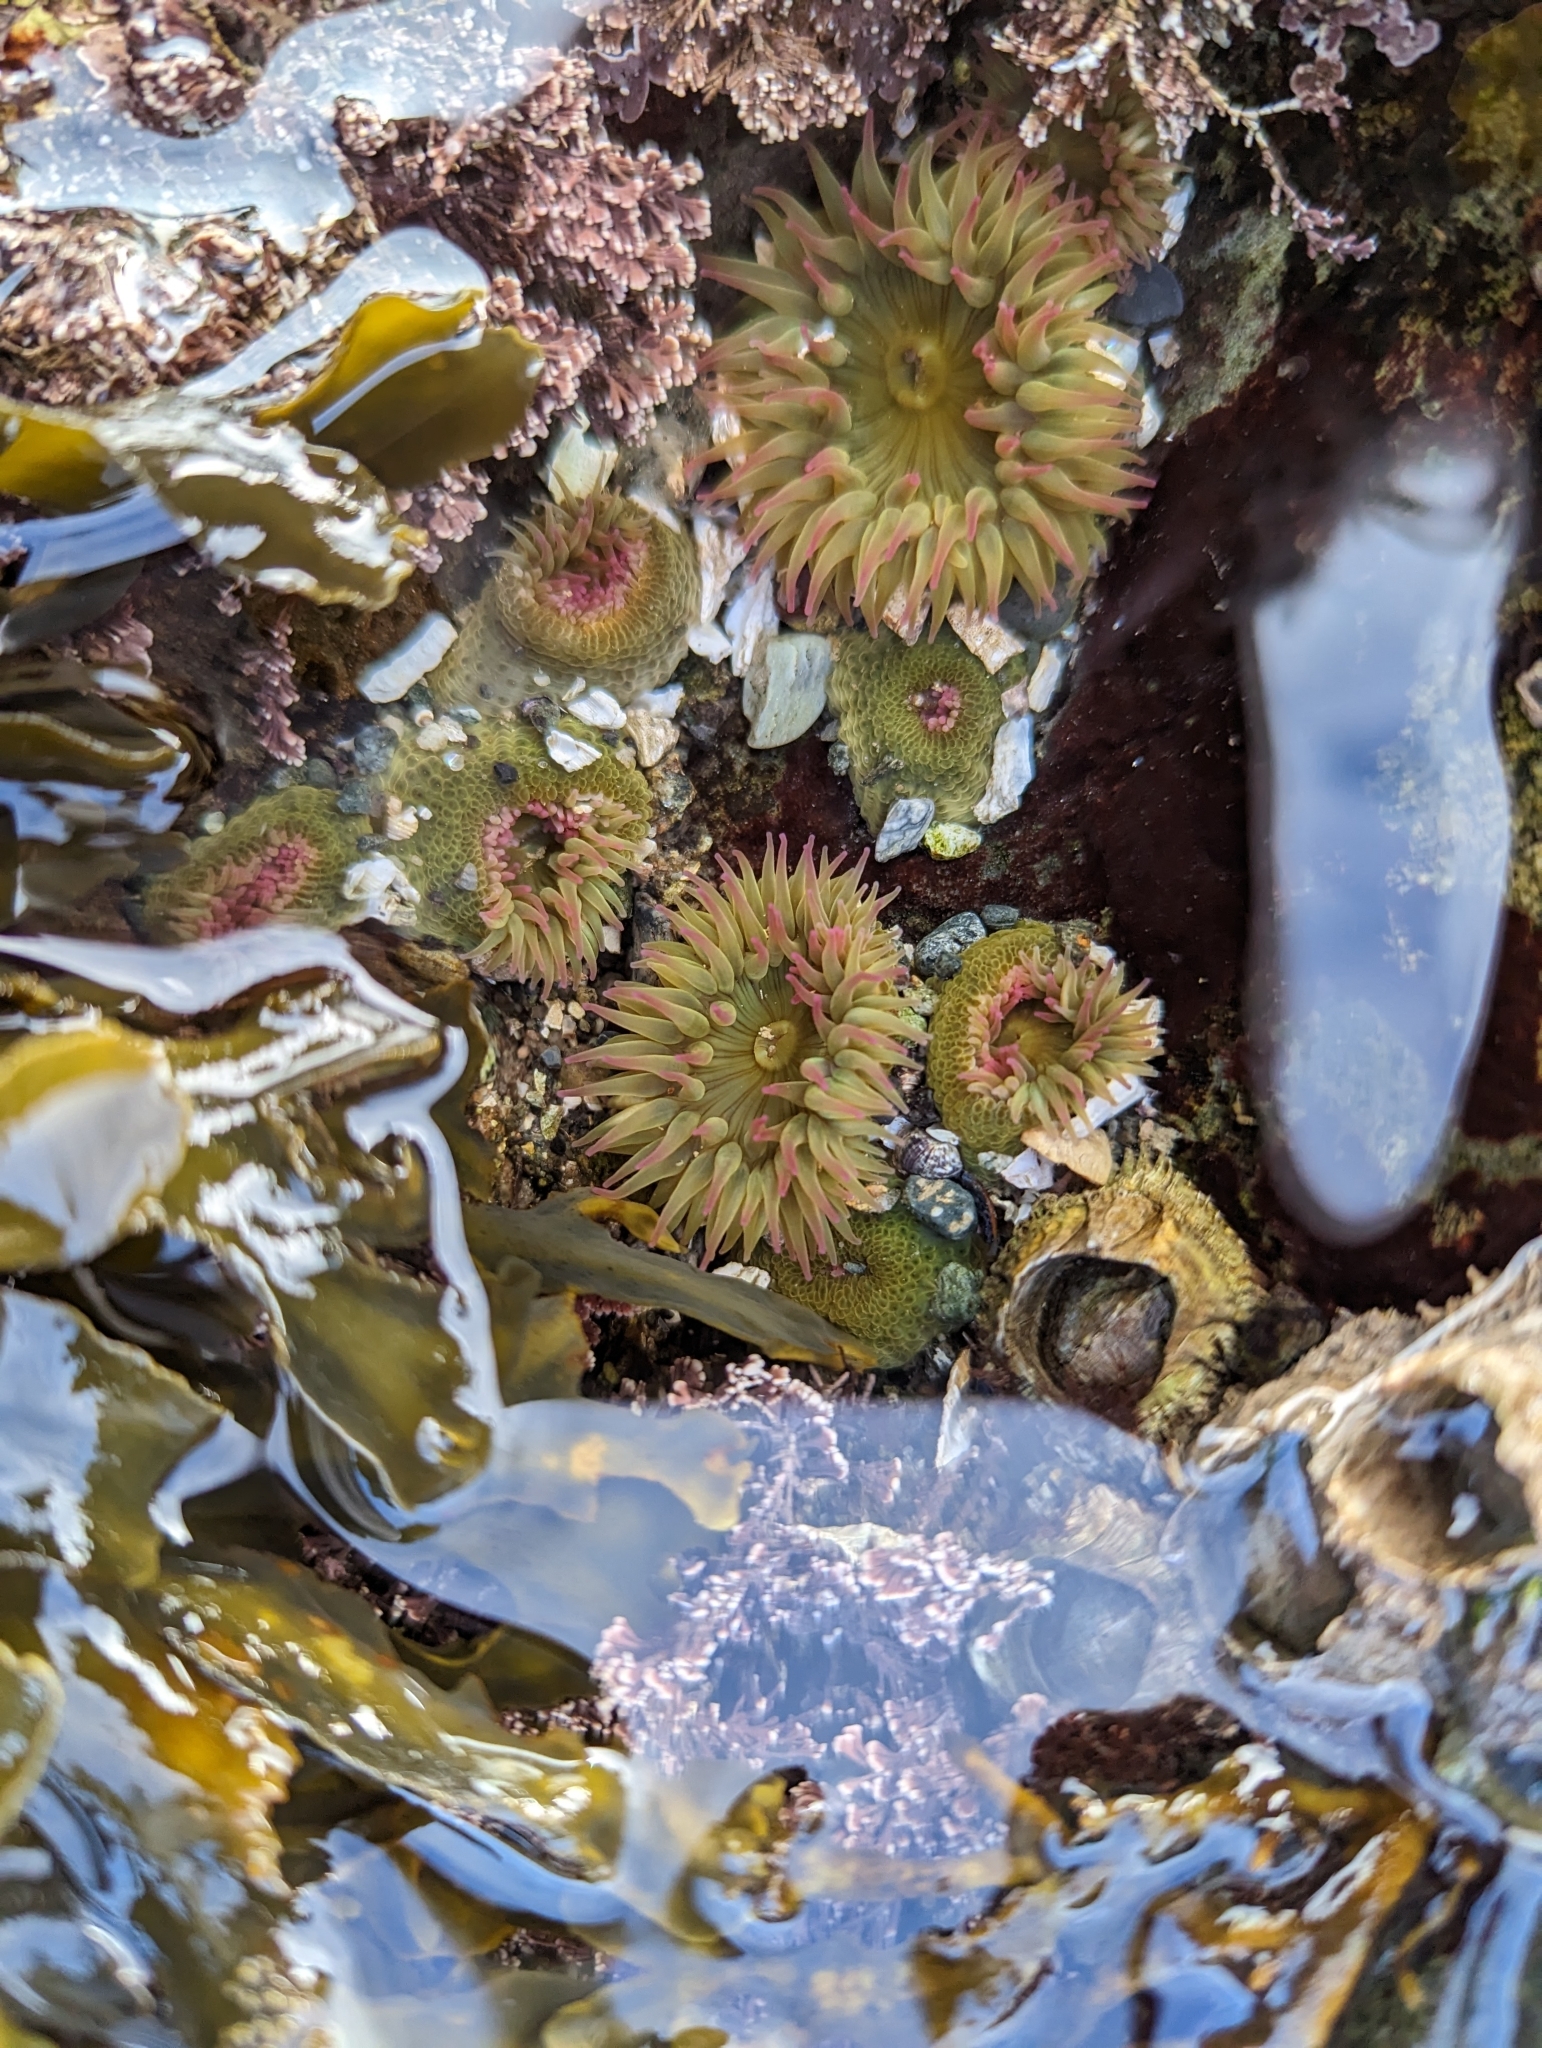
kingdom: Animalia
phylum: Cnidaria
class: Anthozoa
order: Actiniaria
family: Actiniidae
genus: Anthopleura
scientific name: Anthopleura elegantissima
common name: Clonal anemone
